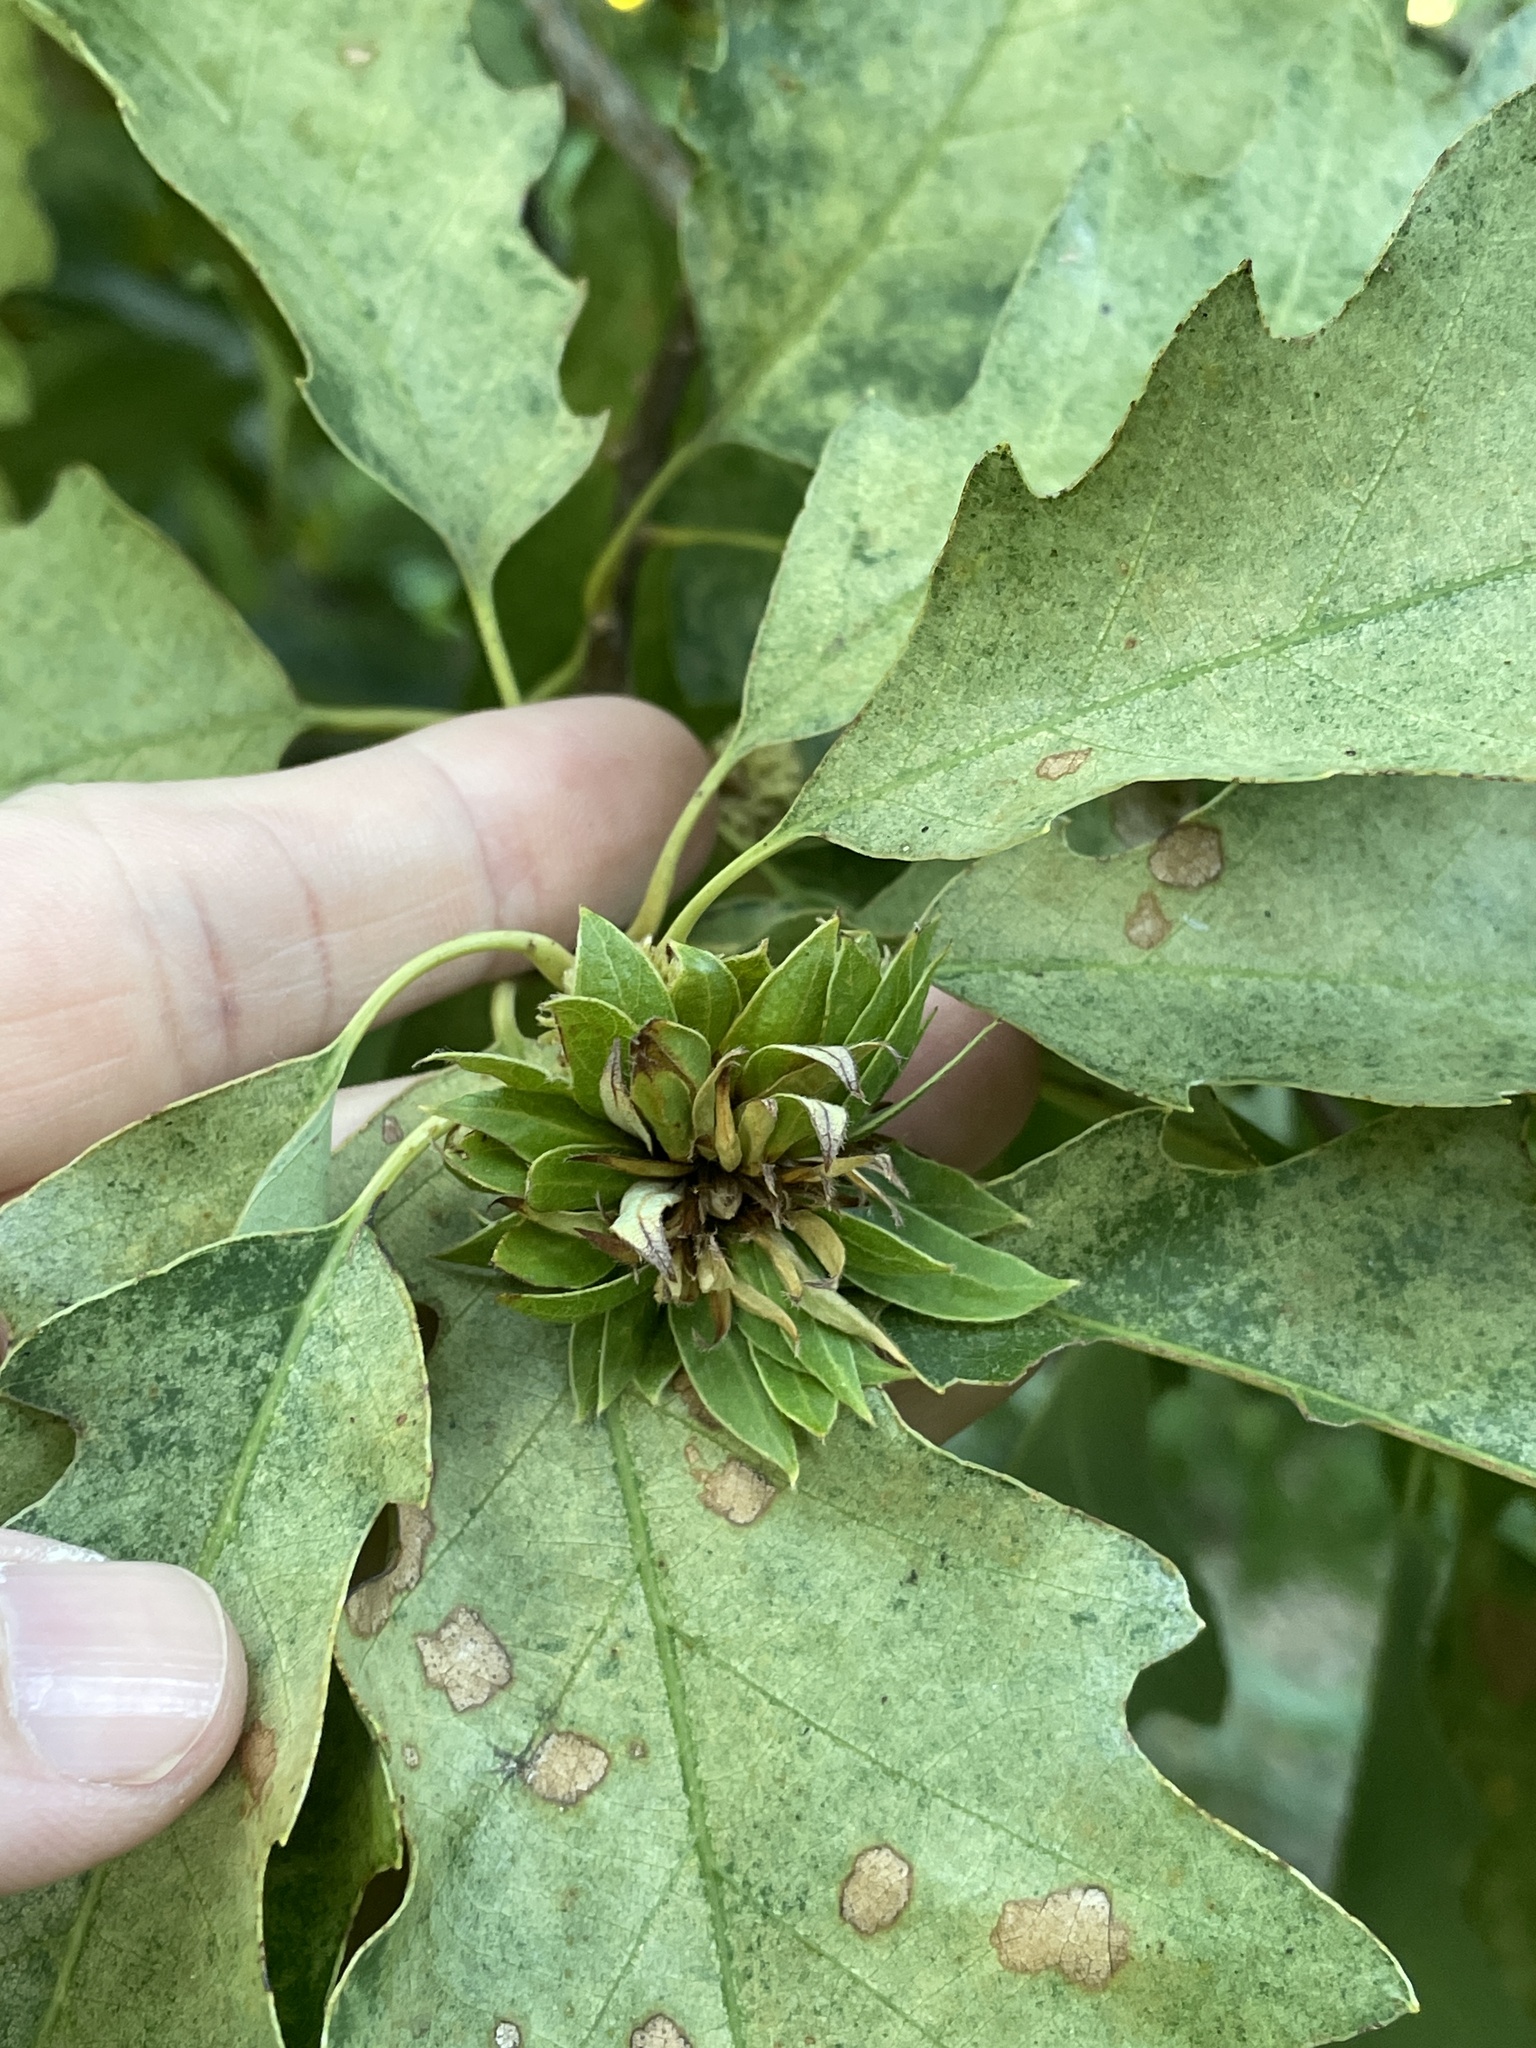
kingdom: Animalia
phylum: Arthropoda
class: Insecta
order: Hymenoptera
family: Cynipidae
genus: Andricus
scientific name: Andricus
